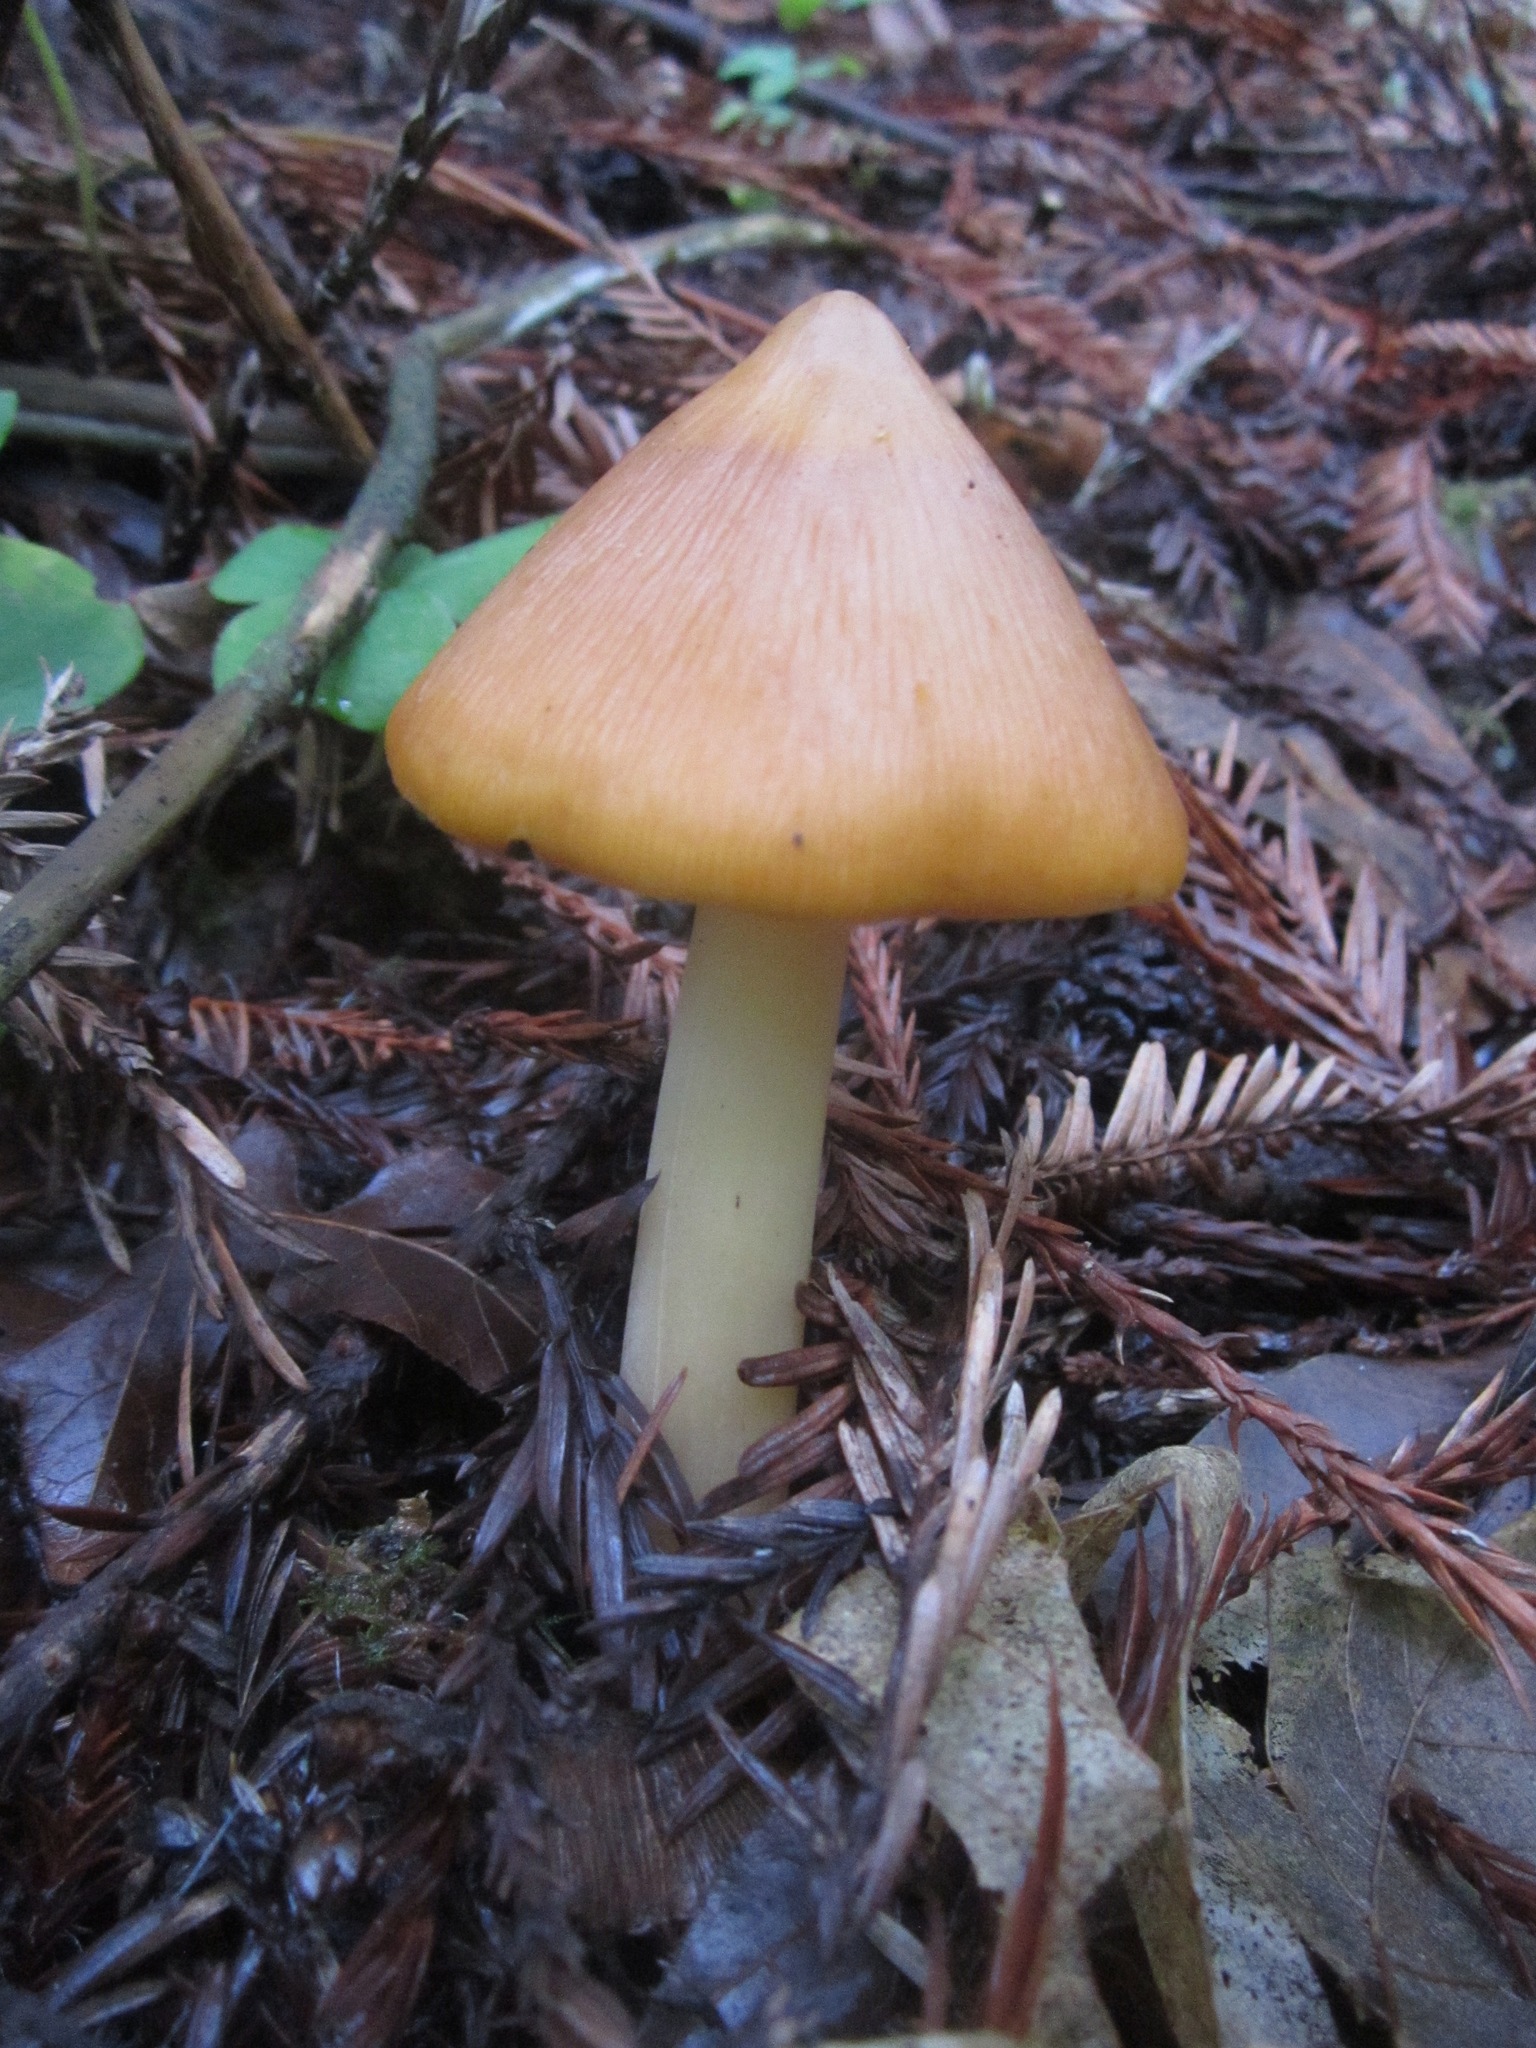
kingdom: Fungi
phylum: Basidiomycota
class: Agaricomycetes
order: Agaricales
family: Tricholomataceae
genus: Caulorhiza
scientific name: Caulorhiza umbonata
